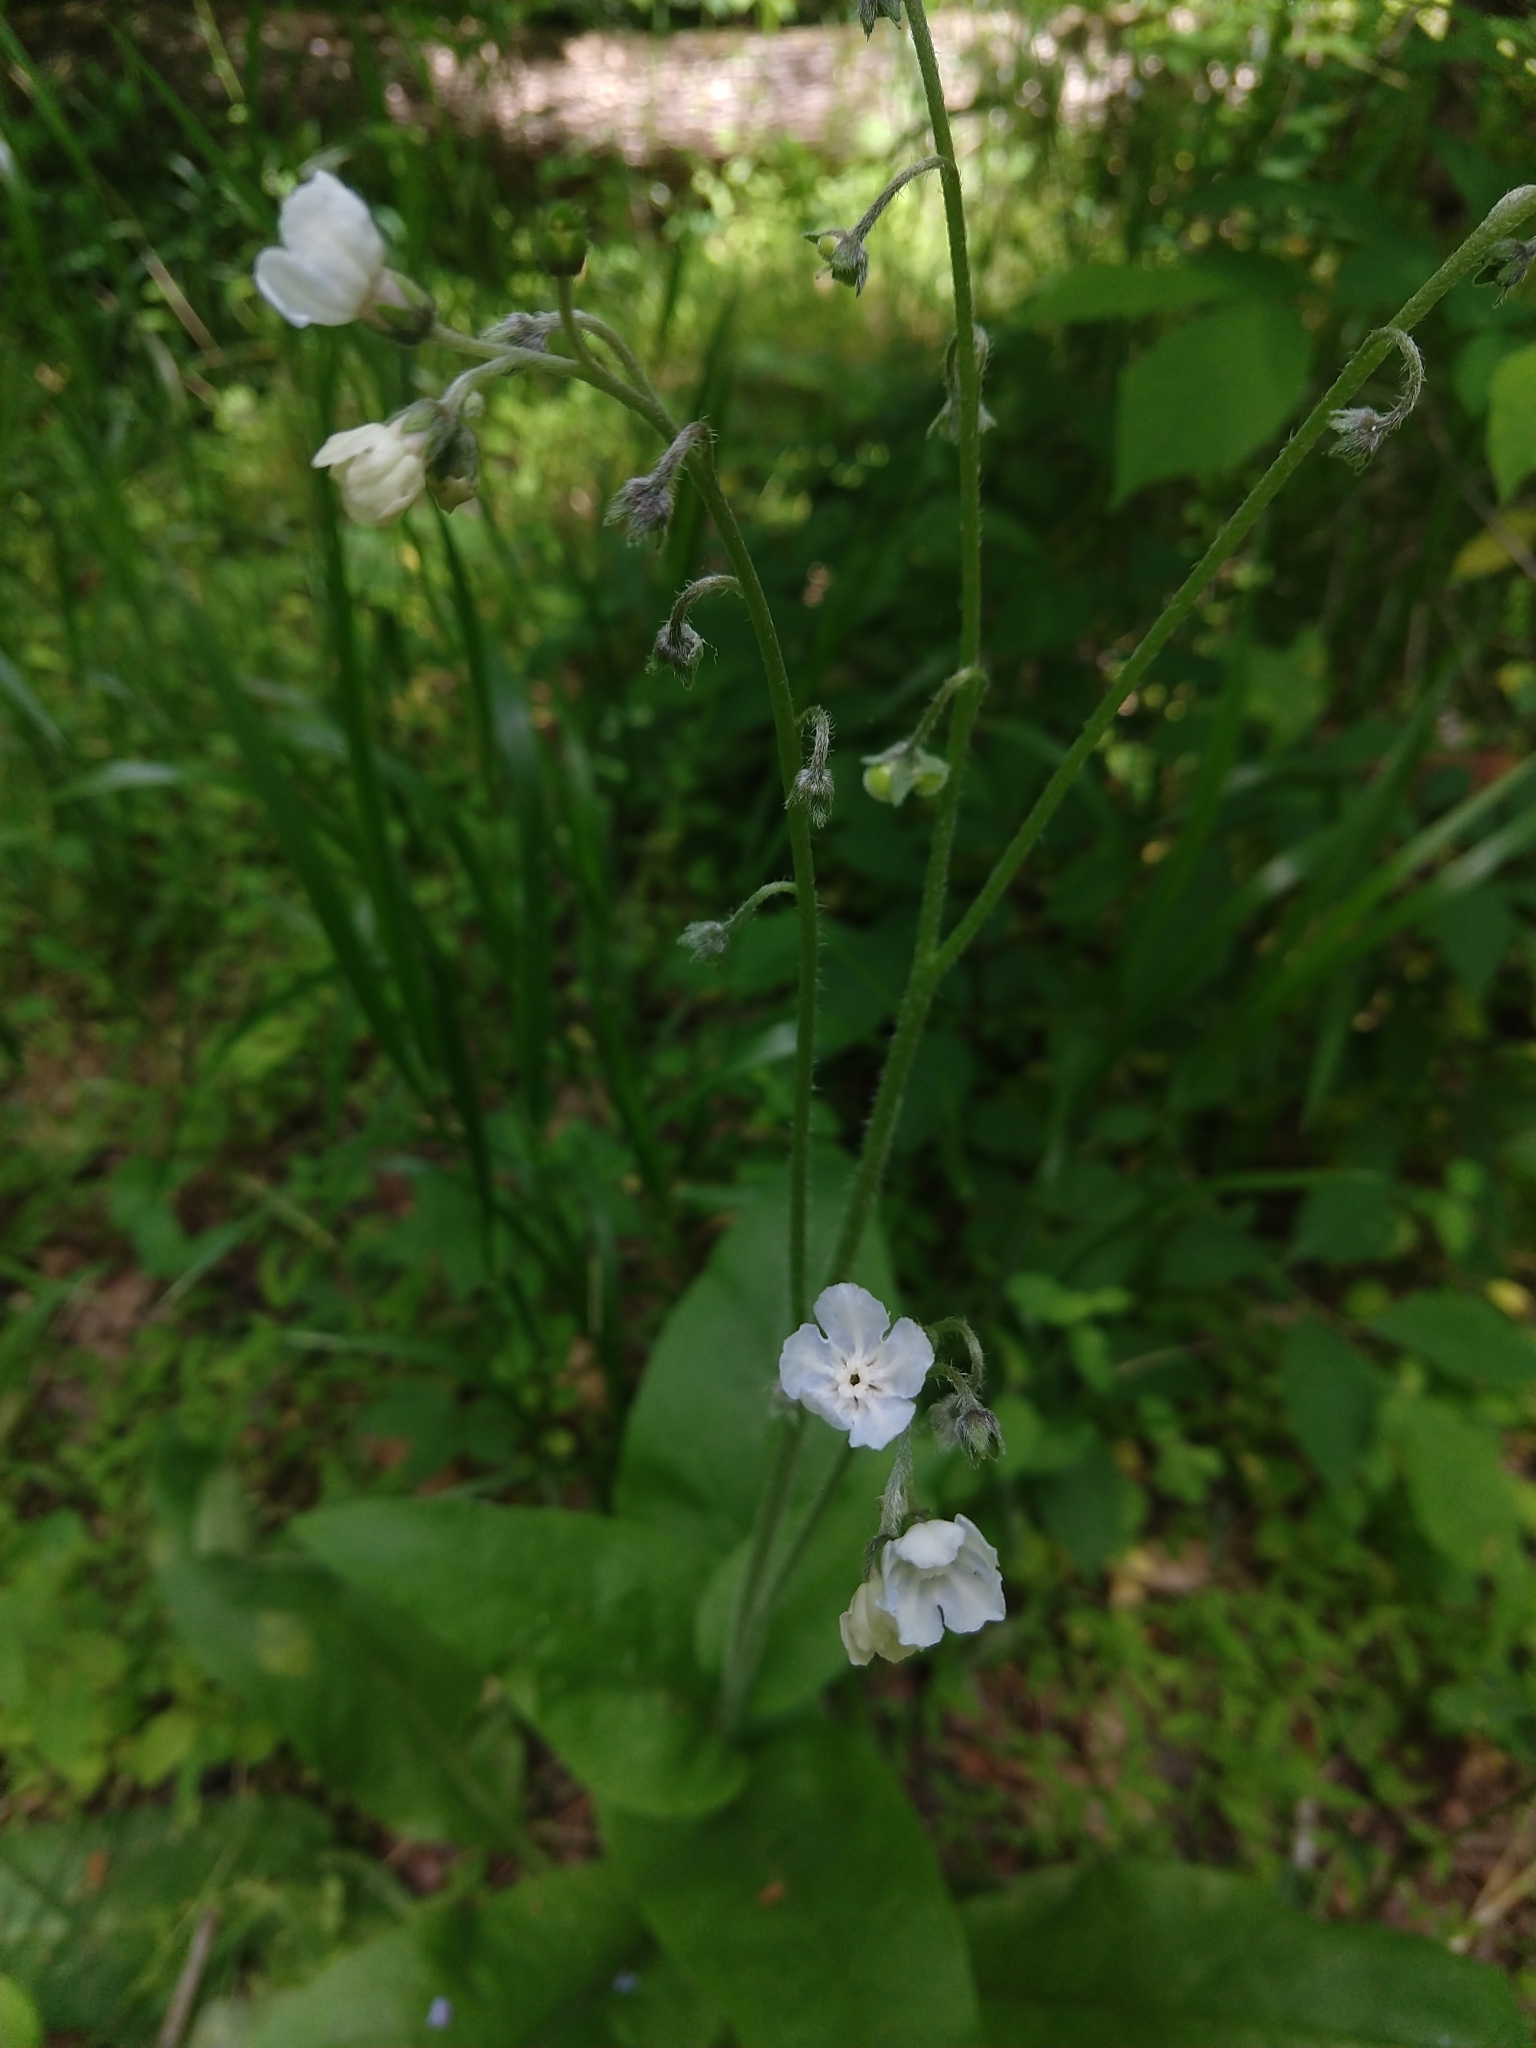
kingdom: Plantae
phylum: Tracheophyta
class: Magnoliopsida
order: Boraginales
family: Boraginaceae
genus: Andersonglossum
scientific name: Andersonglossum virginianum
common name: Wild comfrey
